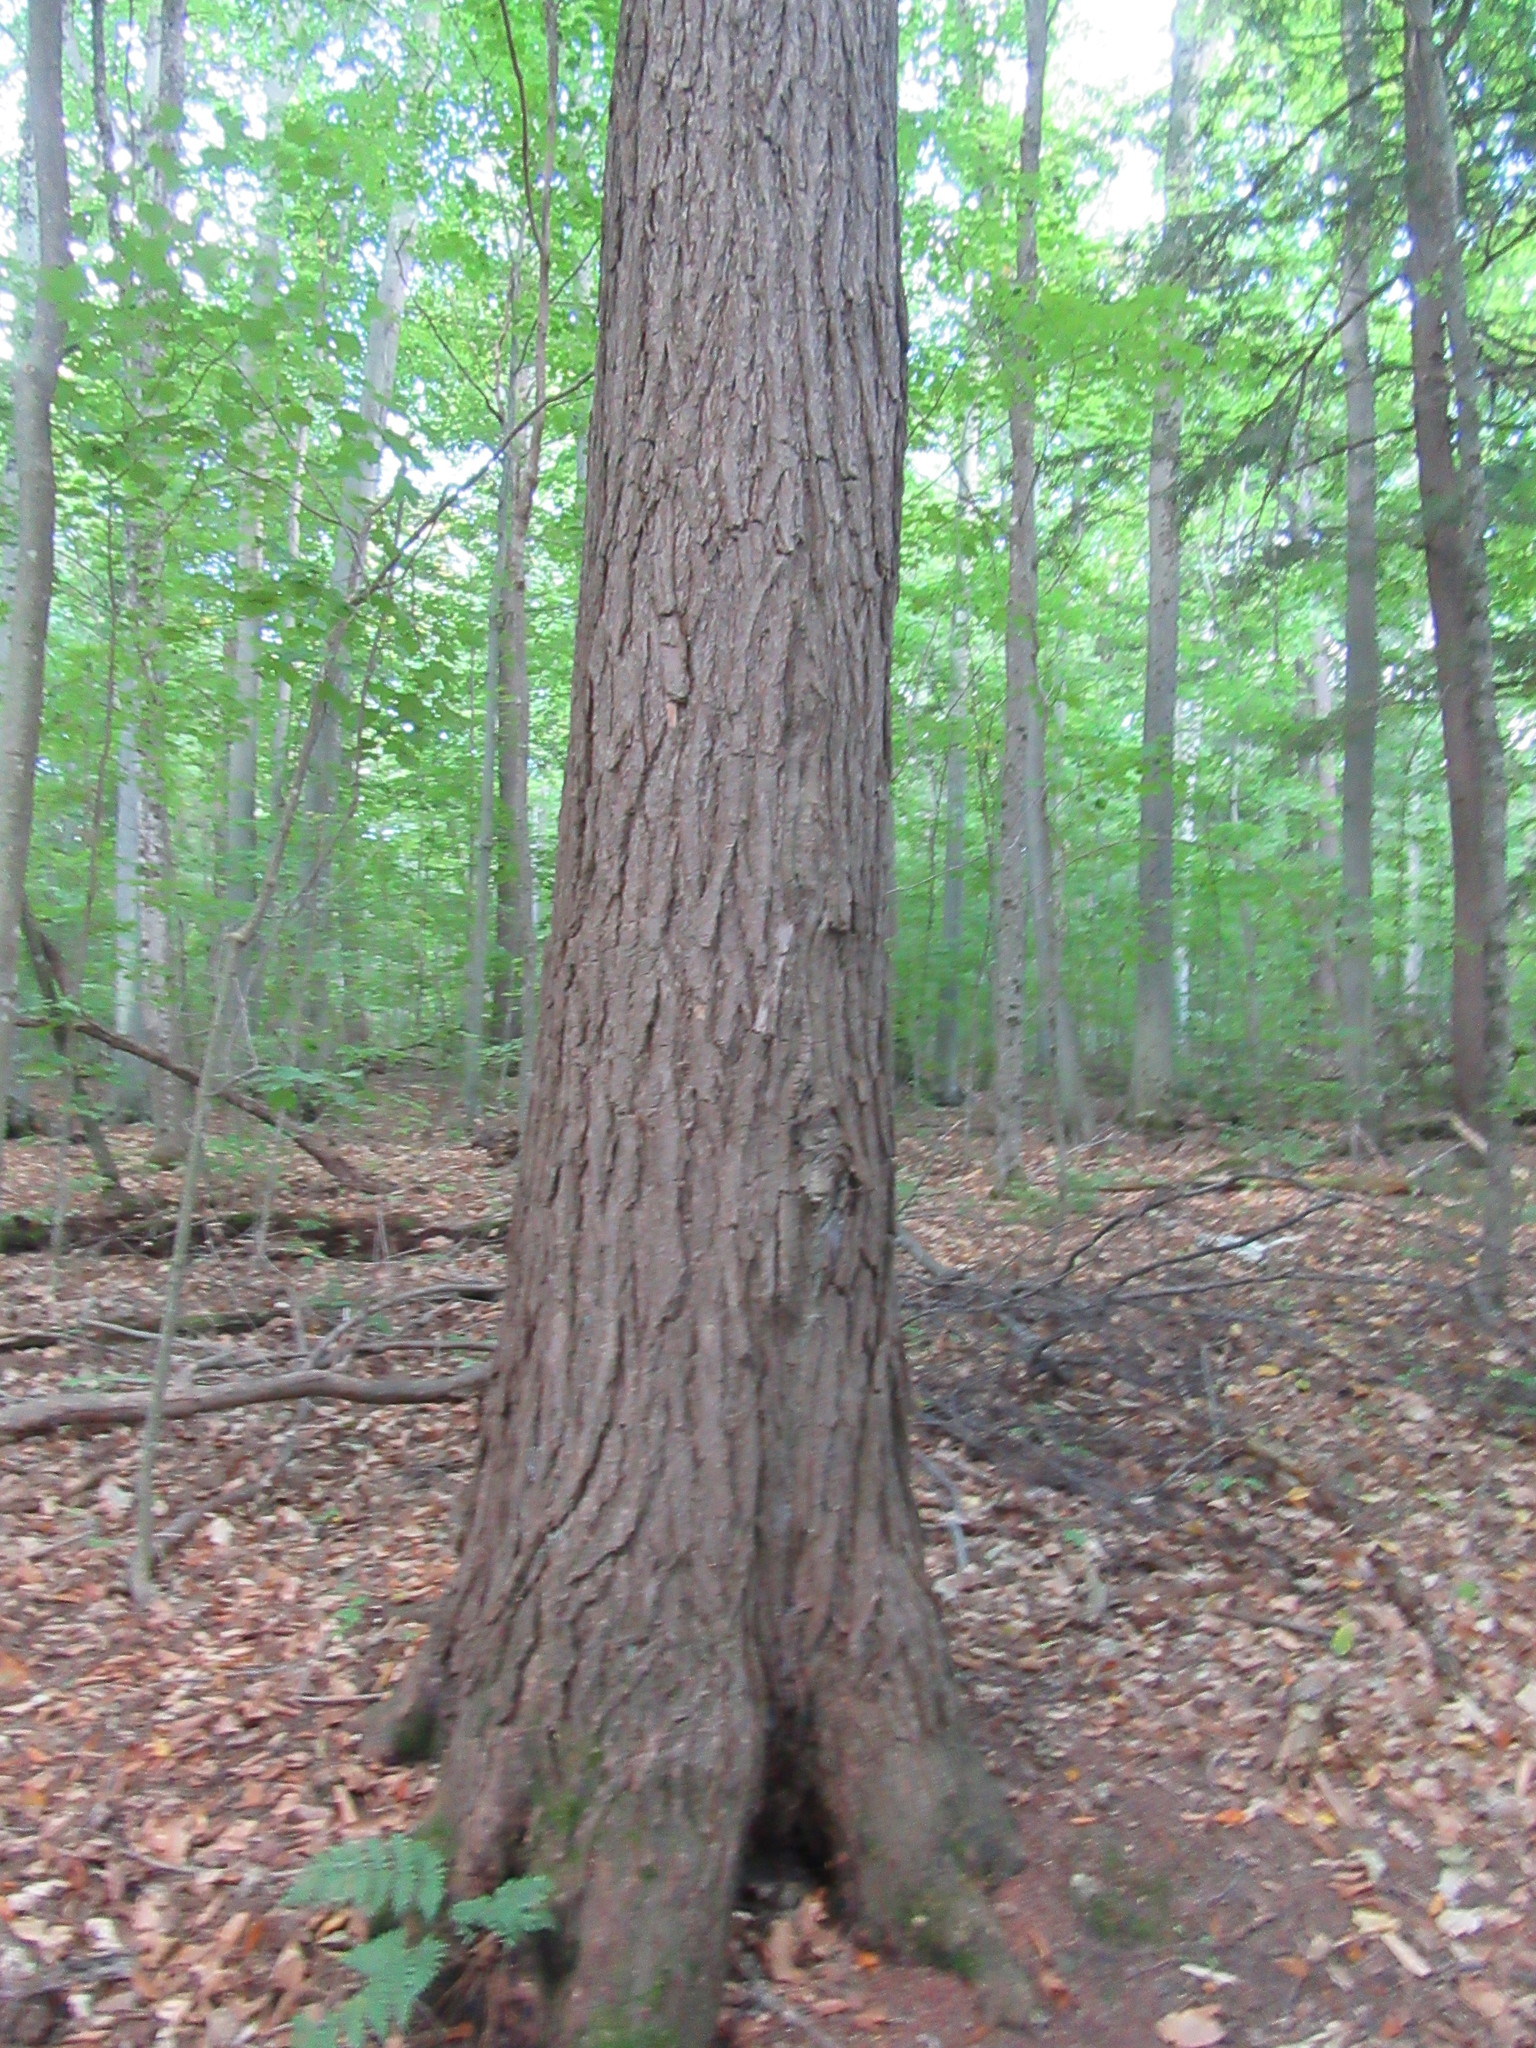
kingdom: Plantae
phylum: Tracheophyta
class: Pinopsida
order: Pinales
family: Pinaceae
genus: Tsuga
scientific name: Tsuga canadensis
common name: Eastern hemlock
